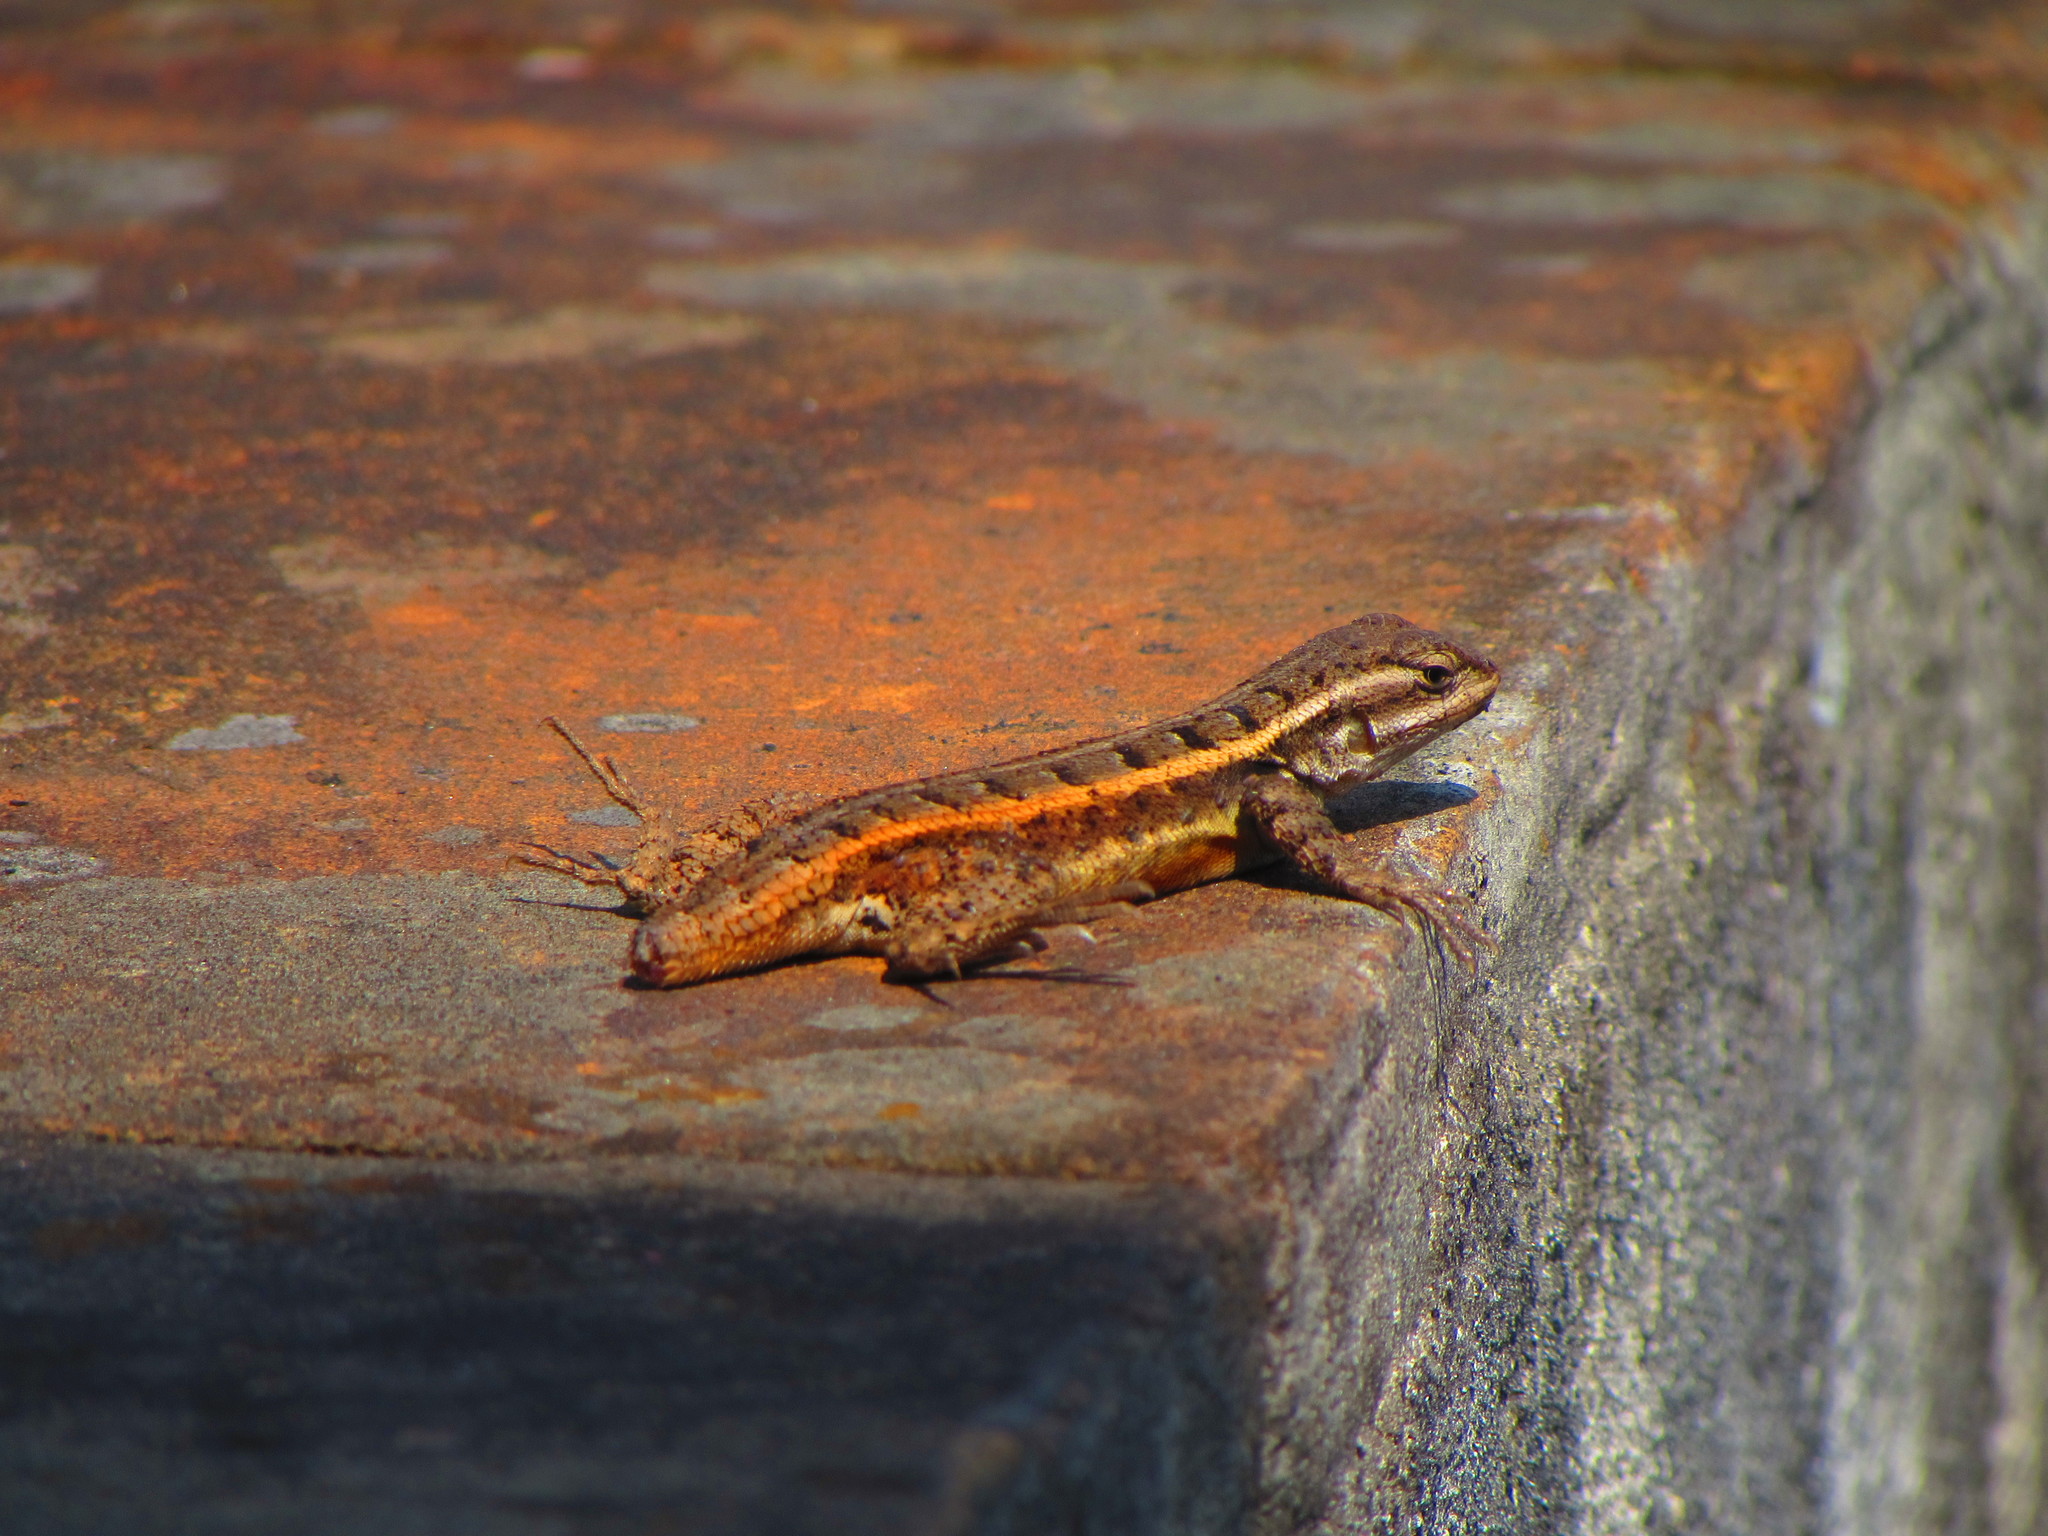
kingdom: Animalia
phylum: Chordata
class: Squamata
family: Phrynosomatidae
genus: Sceloporus
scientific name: Sceloporus variabilis
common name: Rosebelly lizard
